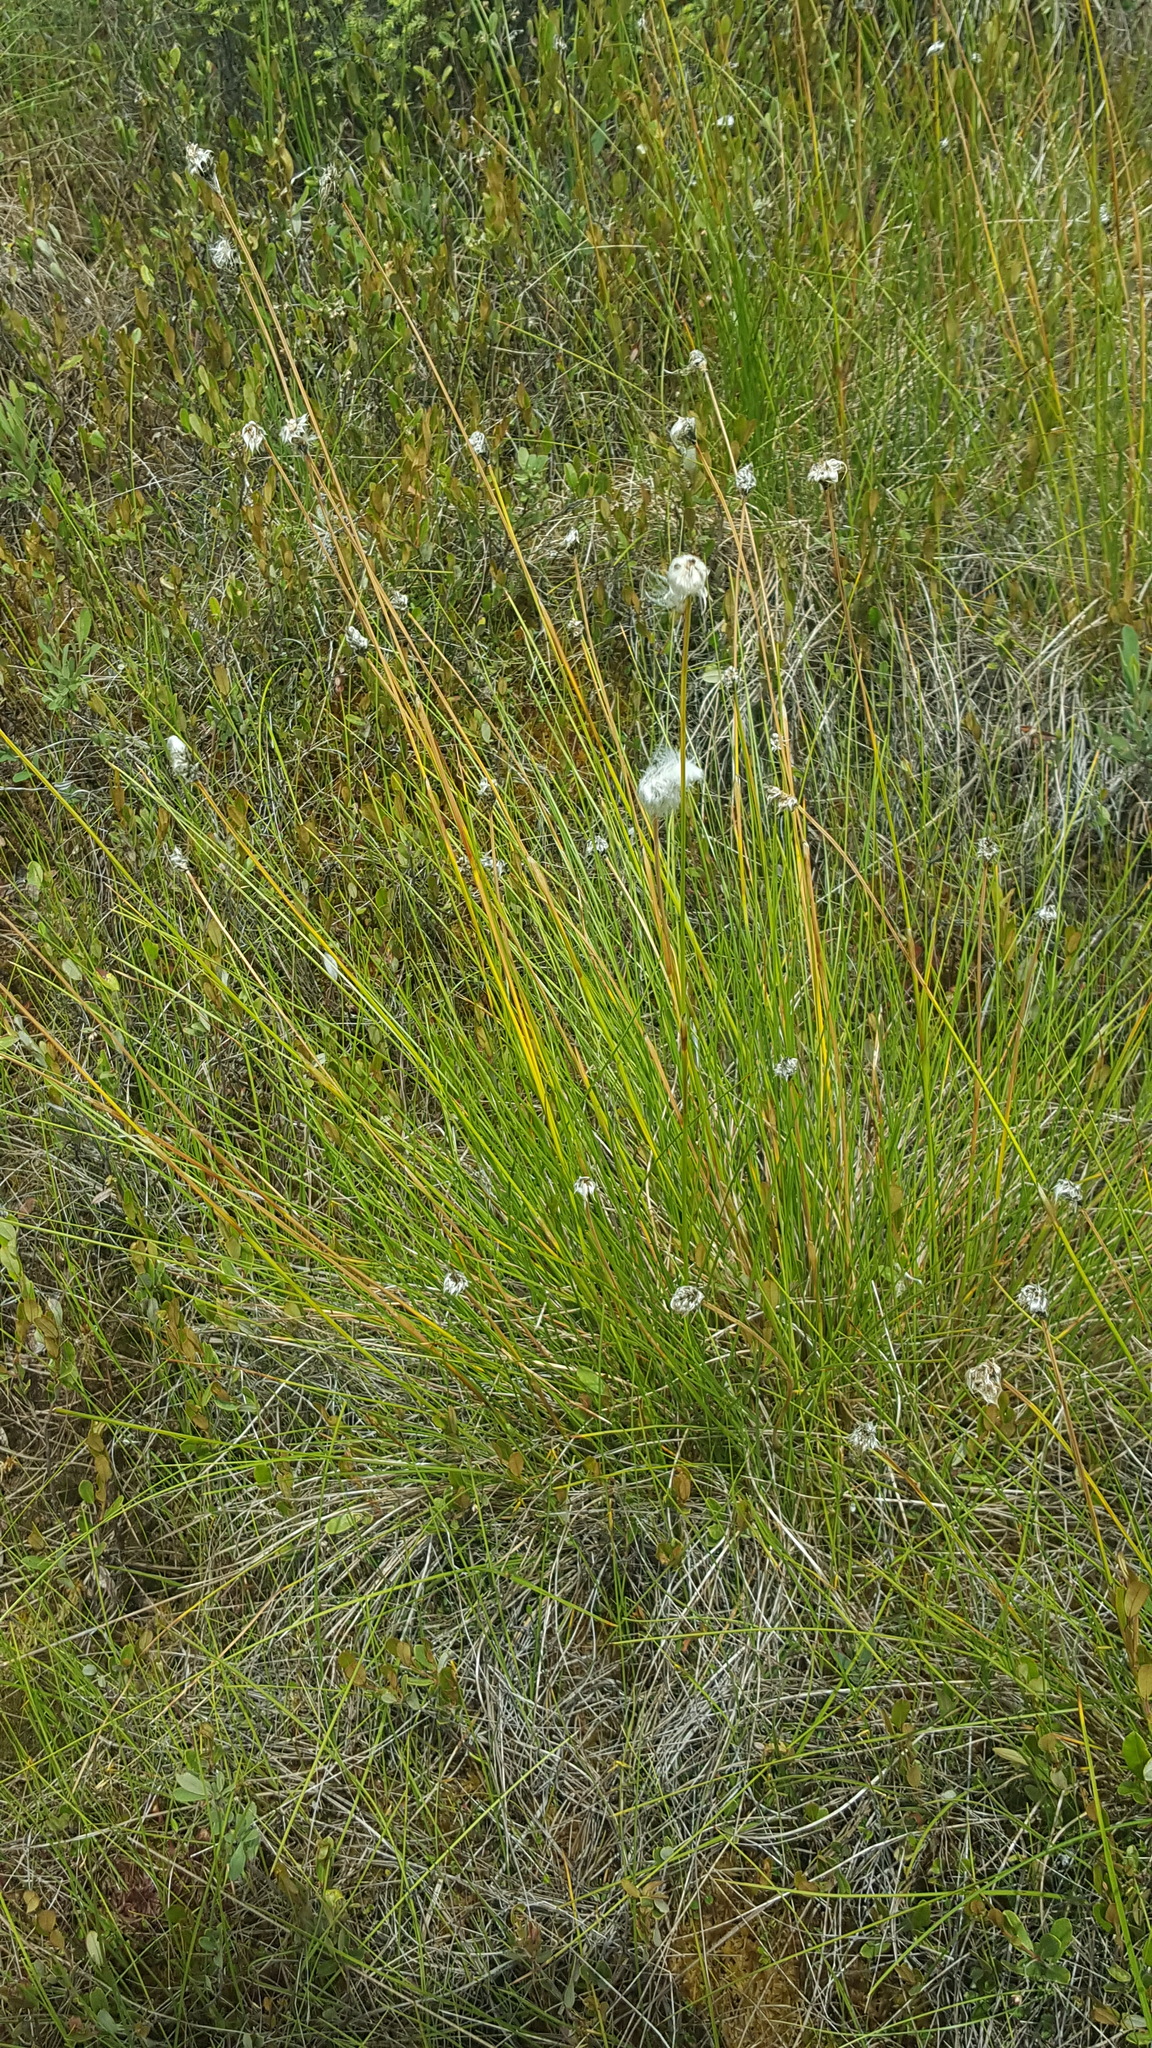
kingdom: Plantae
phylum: Tracheophyta
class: Liliopsida
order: Poales
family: Cyperaceae
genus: Eriophorum
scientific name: Eriophorum vaginatum
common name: Hare's-tail cottongrass
